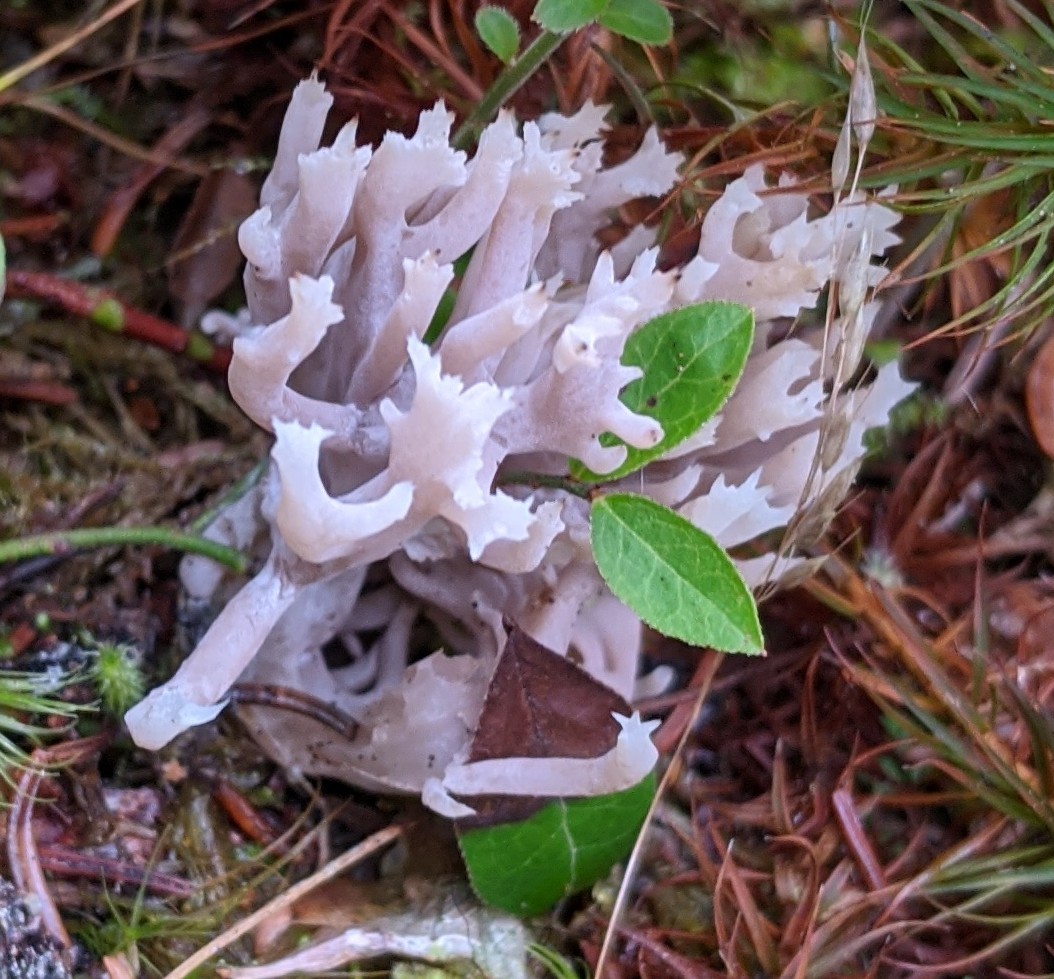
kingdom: Fungi
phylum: Basidiomycota
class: Agaricomycetes
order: Agaricales
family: Clavariaceae
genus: Clavaria
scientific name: Clavaria zollingeri
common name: Violet coral
